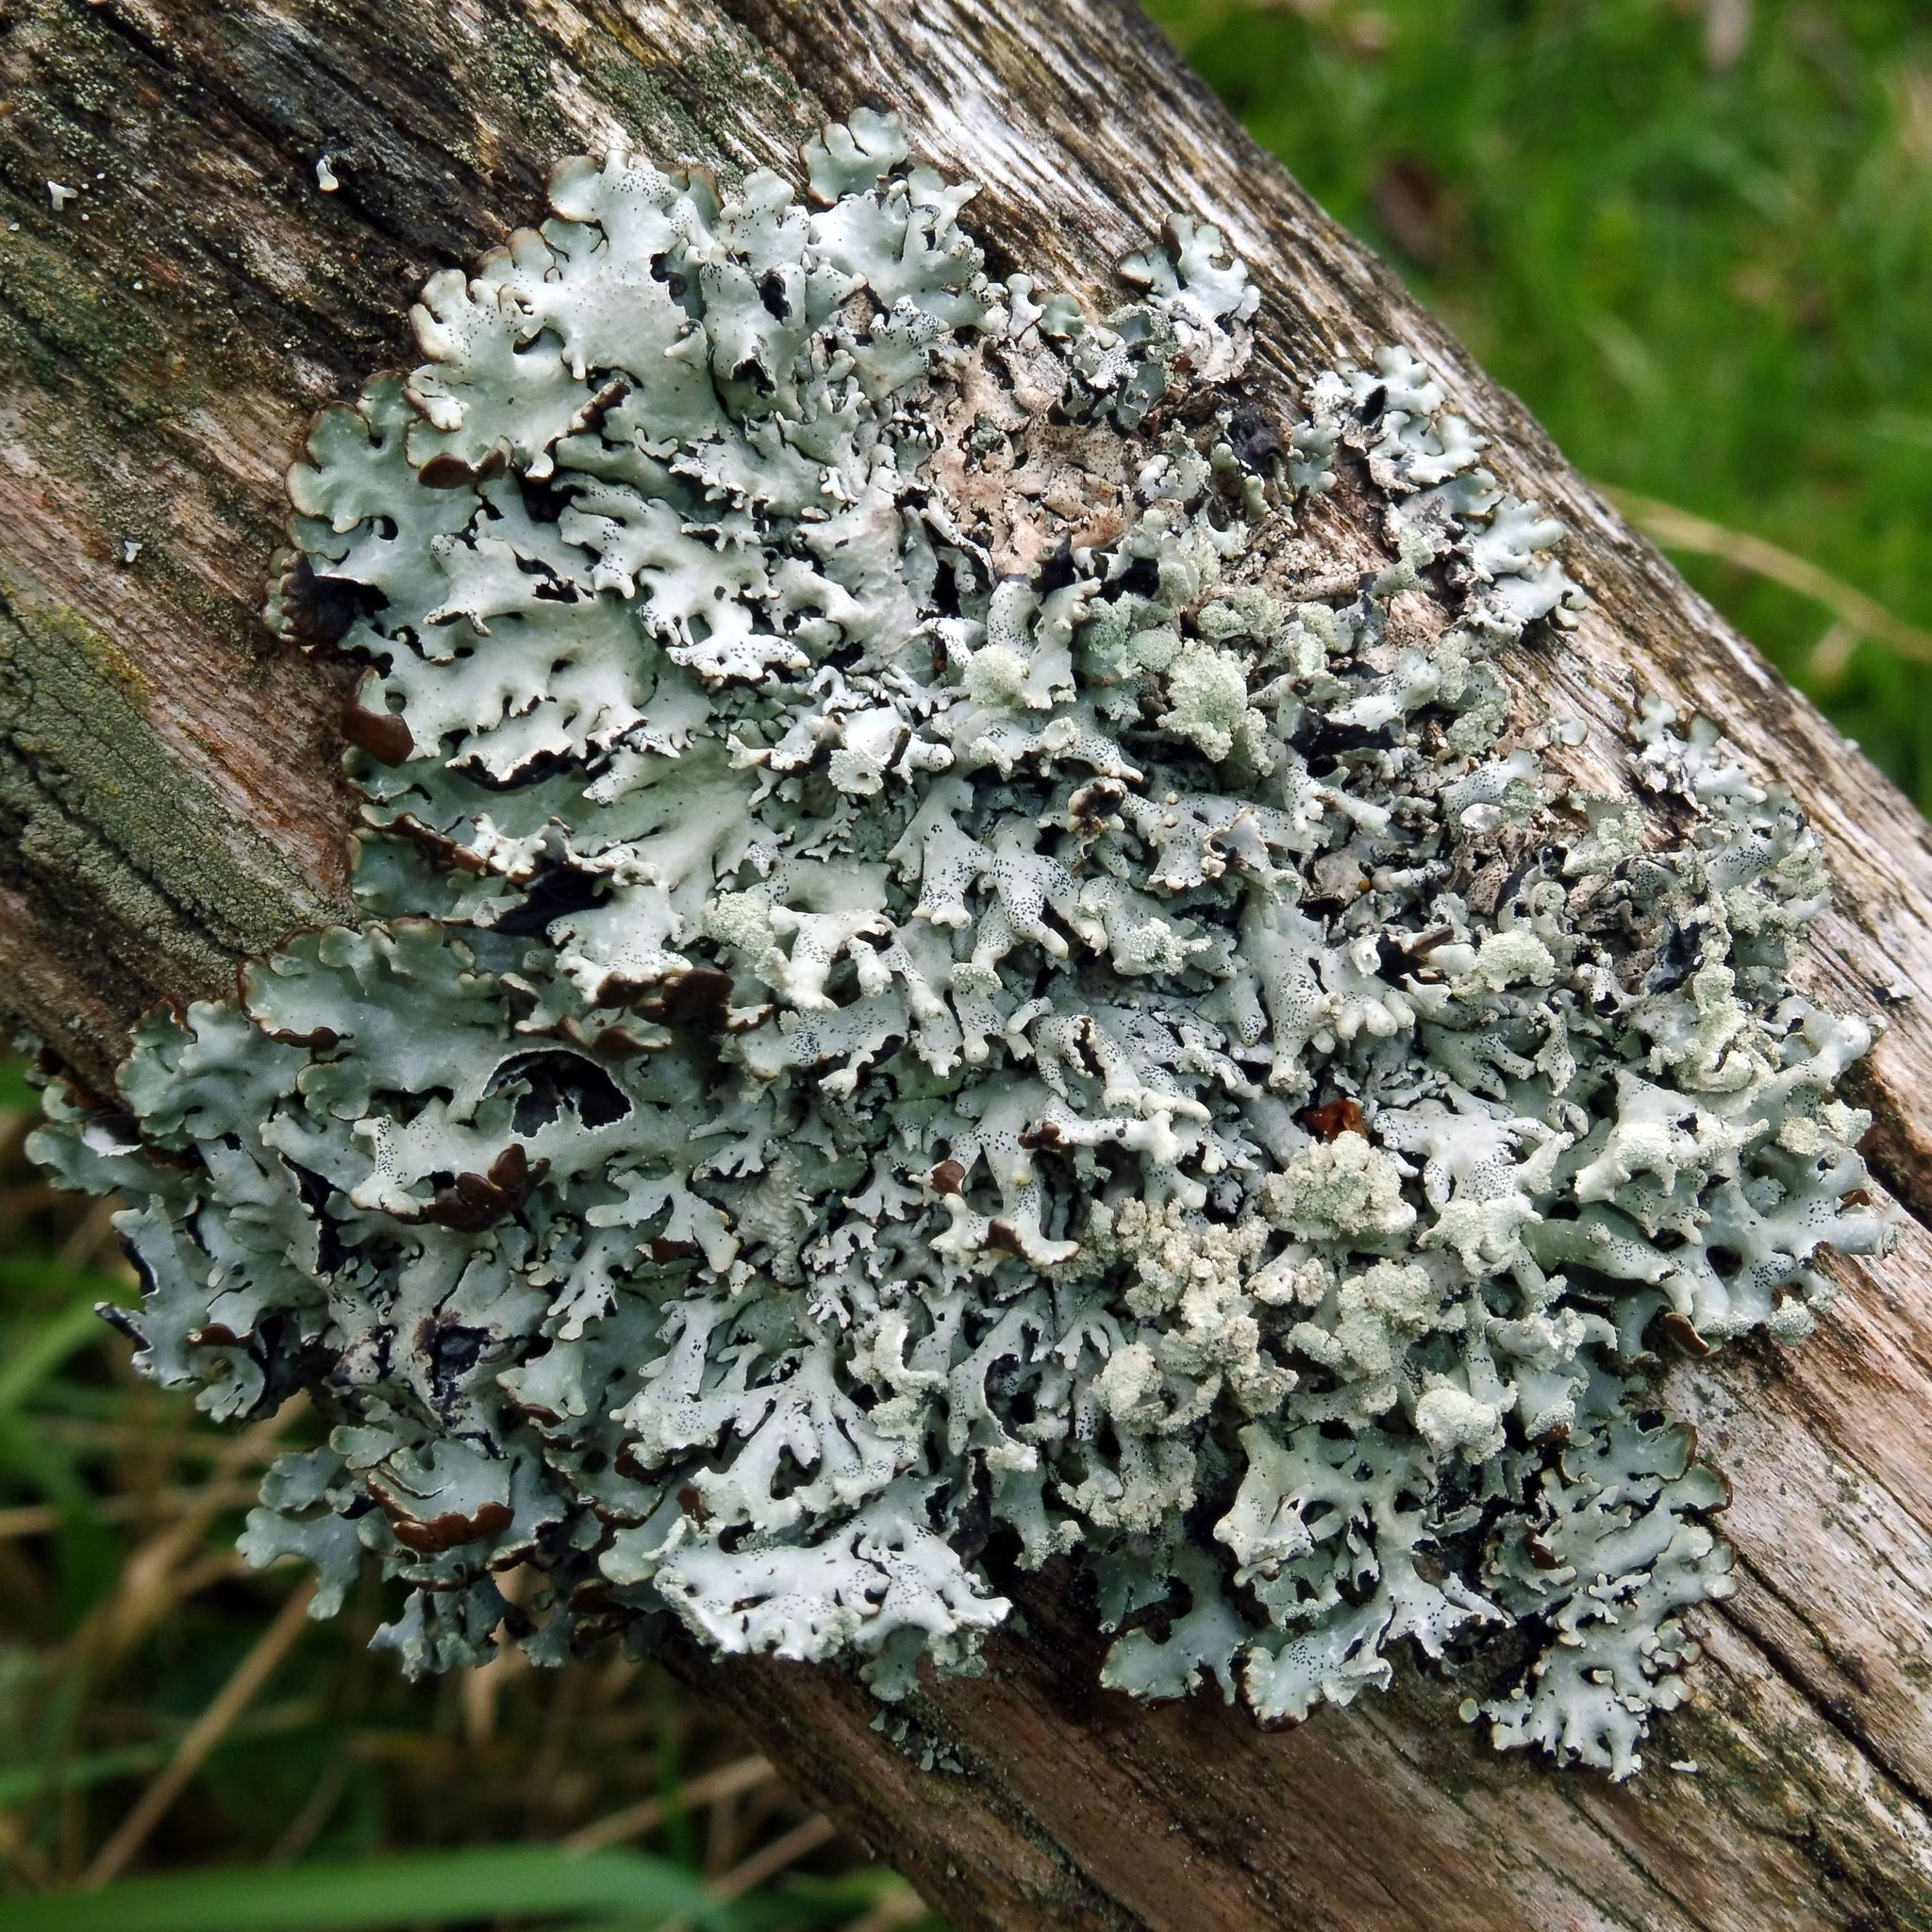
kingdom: Fungi
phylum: Ascomycota
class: Lecanoromycetes
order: Lecanorales
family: Parmeliaceae
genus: Hypogymnia
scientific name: Hypogymnia physodes
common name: Dark crottle
